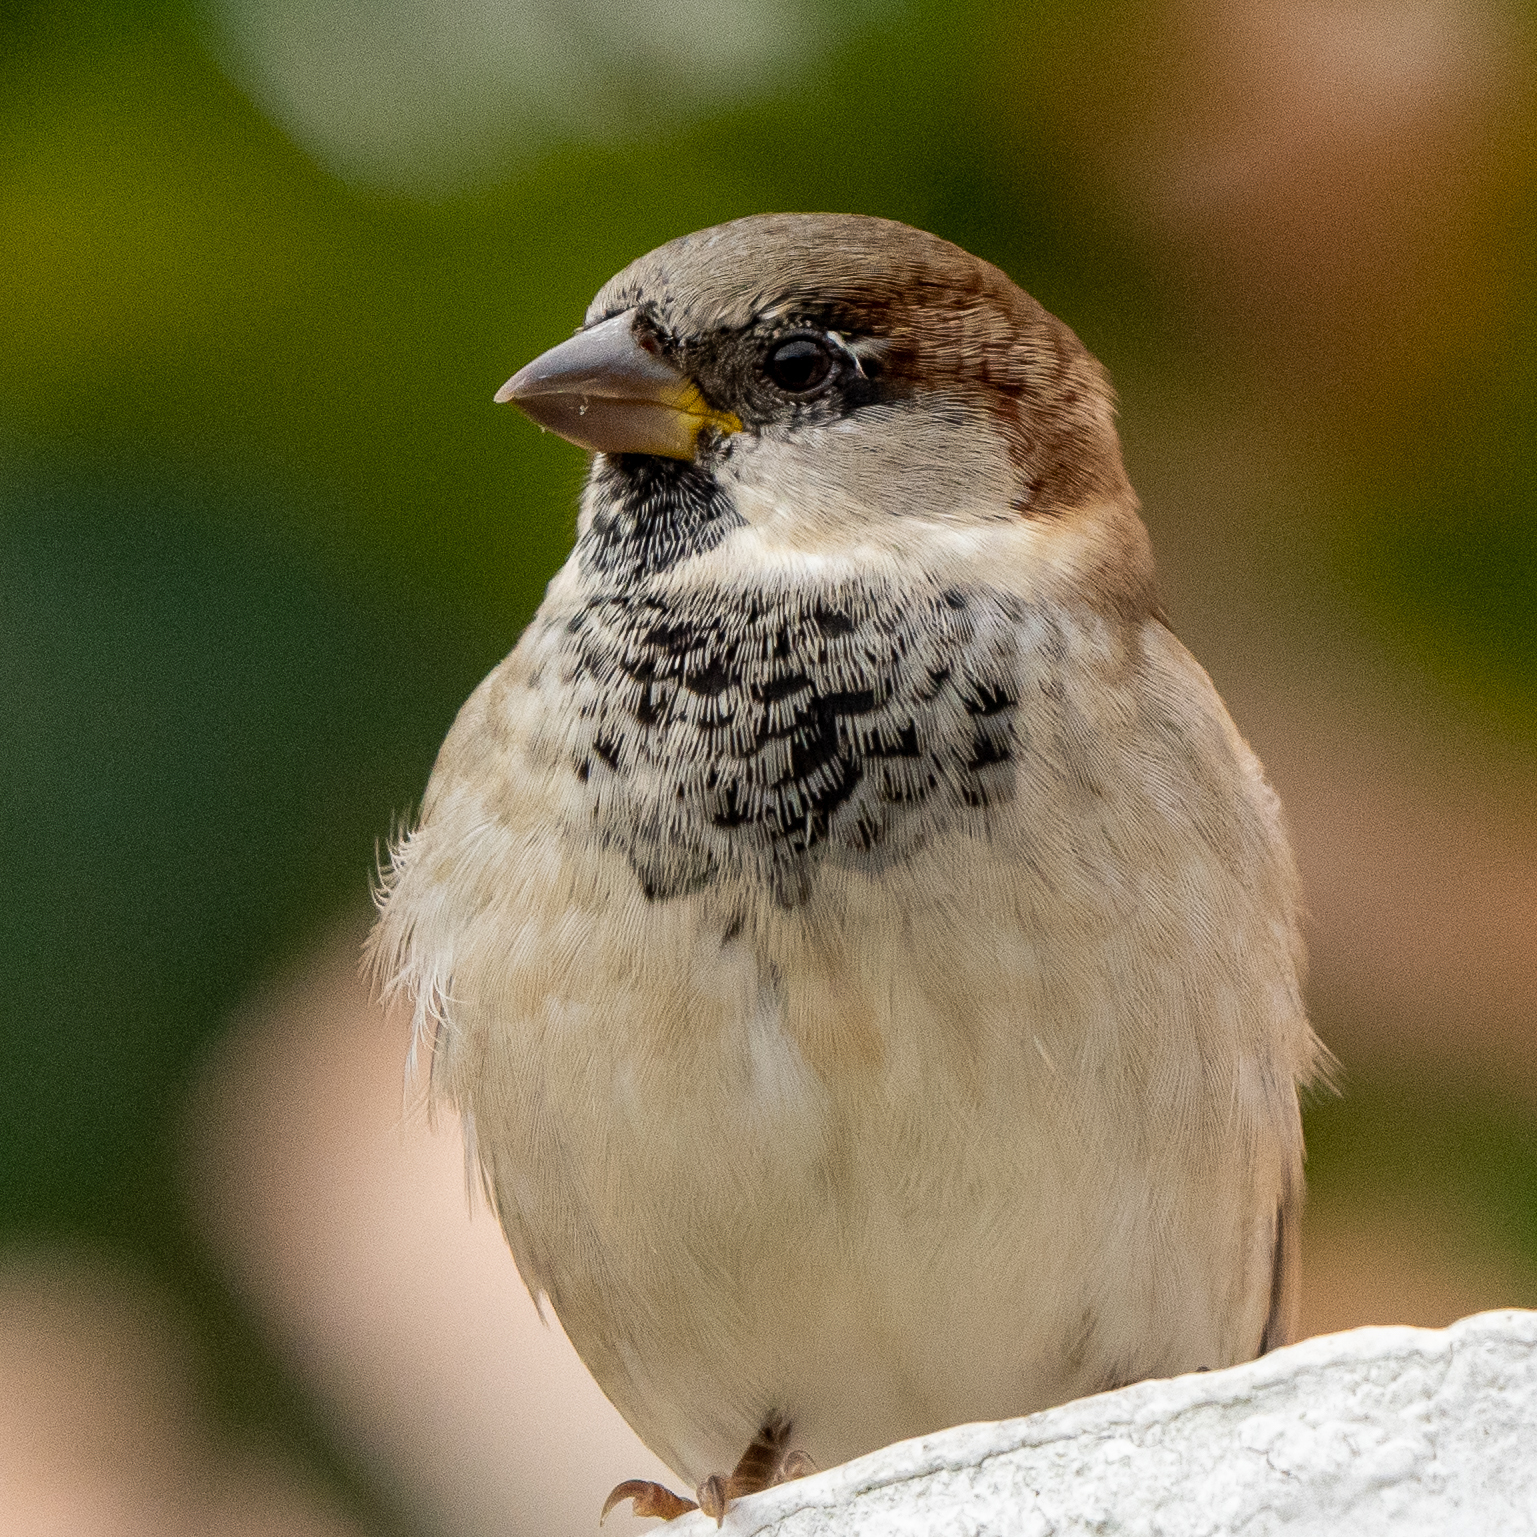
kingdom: Animalia
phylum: Chordata
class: Aves
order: Passeriformes
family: Passeridae
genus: Passer
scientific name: Passer domesticus
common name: House sparrow
